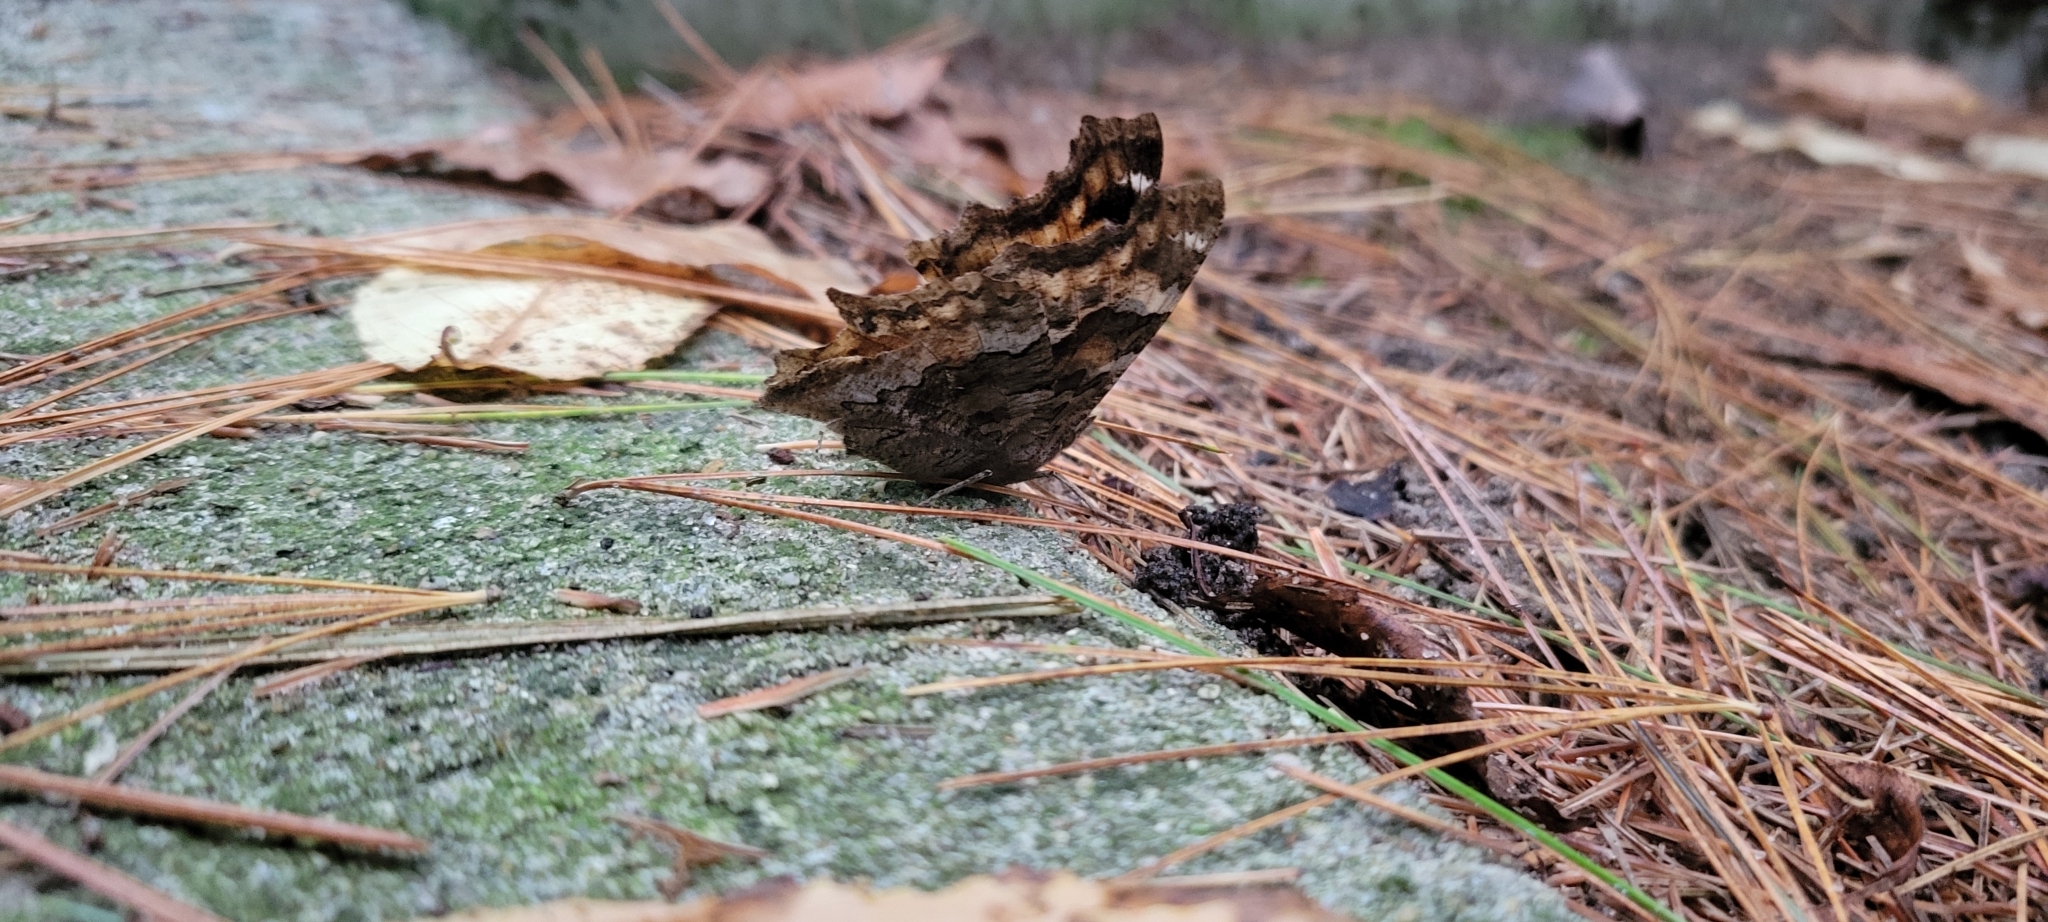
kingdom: Animalia
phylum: Arthropoda
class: Insecta
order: Lepidoptera
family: Nymphalidae
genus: Polygonia
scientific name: Polygonia vaualbum
